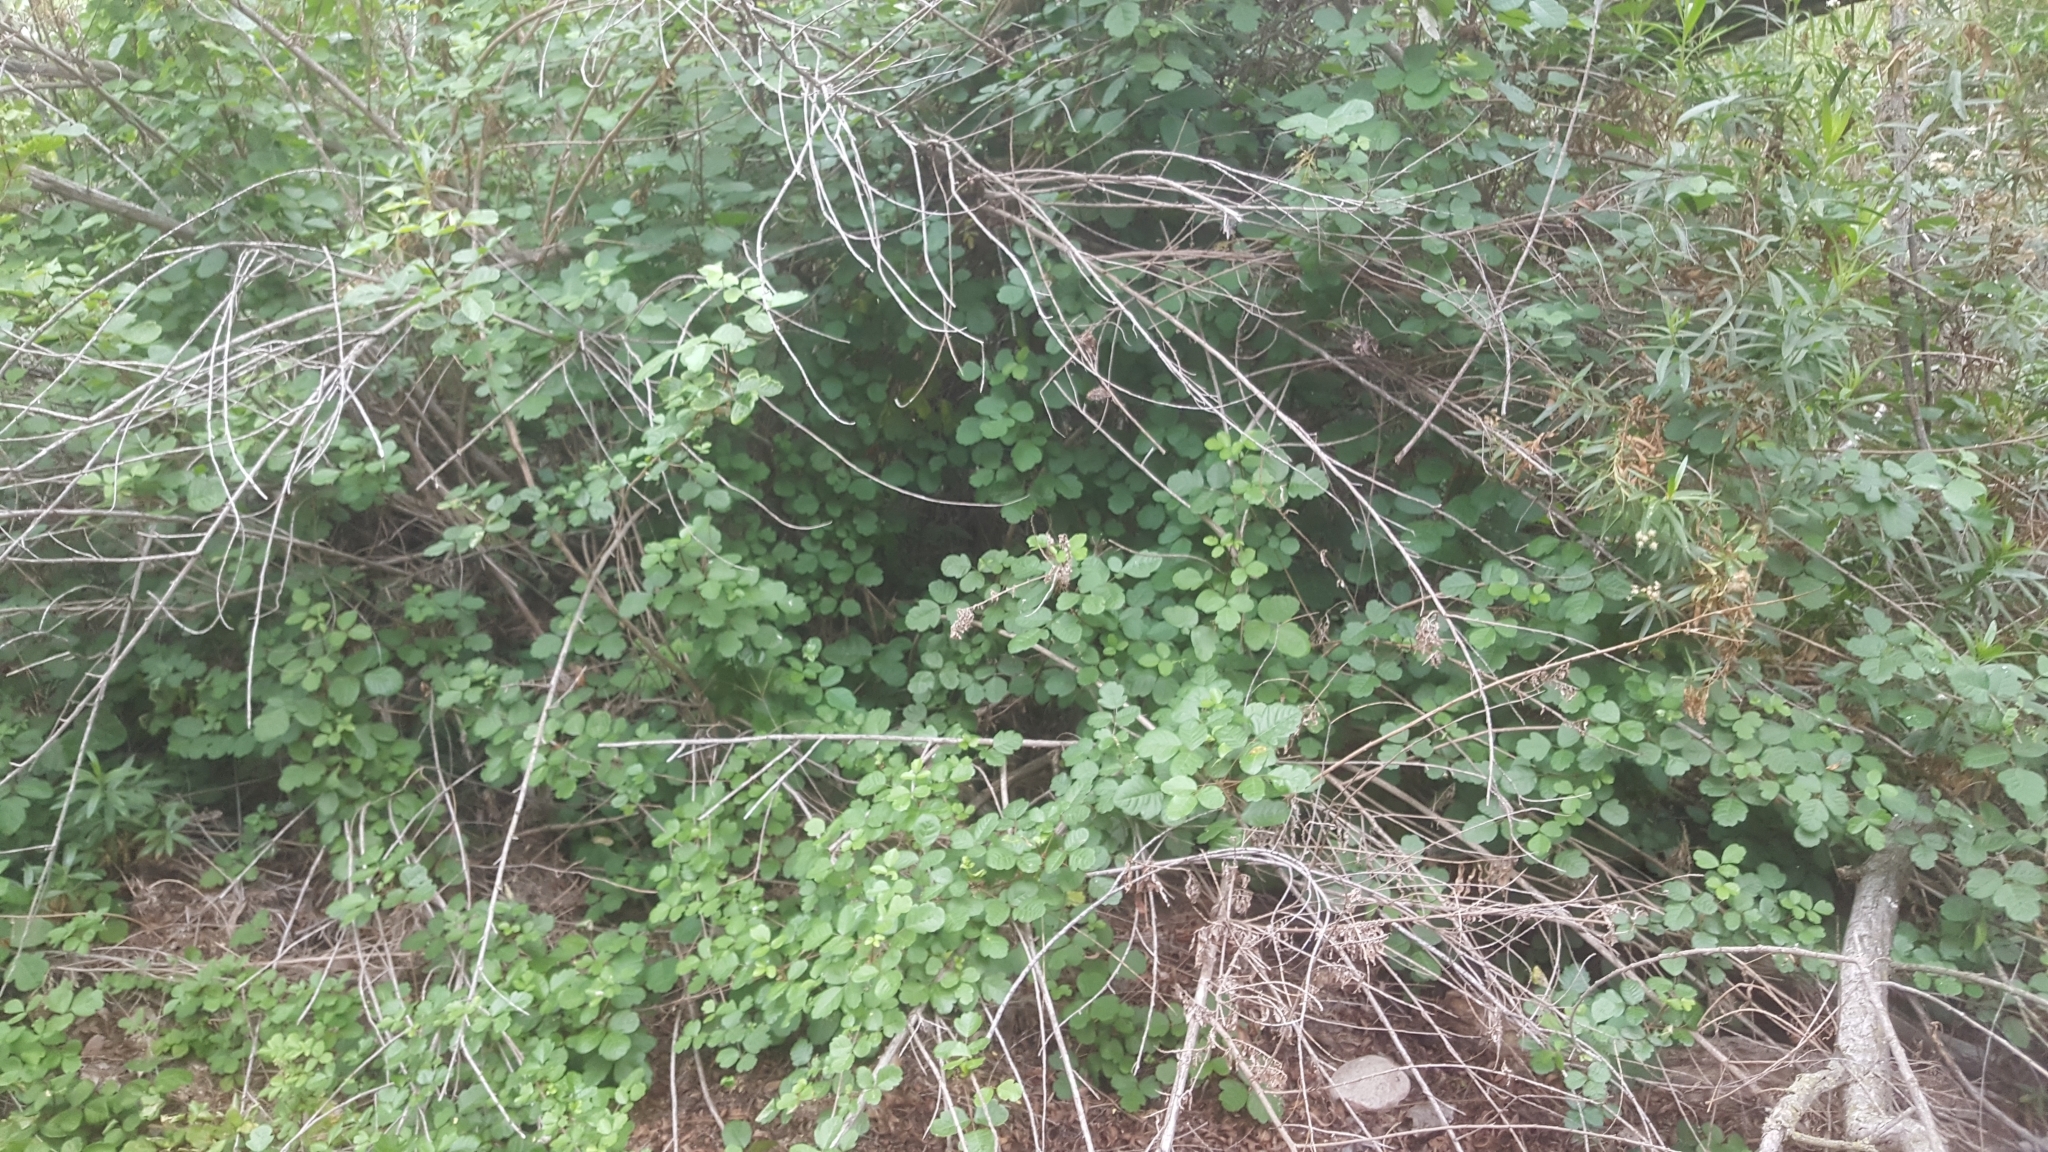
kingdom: Plantae
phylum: Tracheophyta
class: Magnoliopsida
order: Sapindales
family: Anacardiaceae
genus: Toxicodendron
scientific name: Toxicodendron diversilobum
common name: Pacific poison-oak
